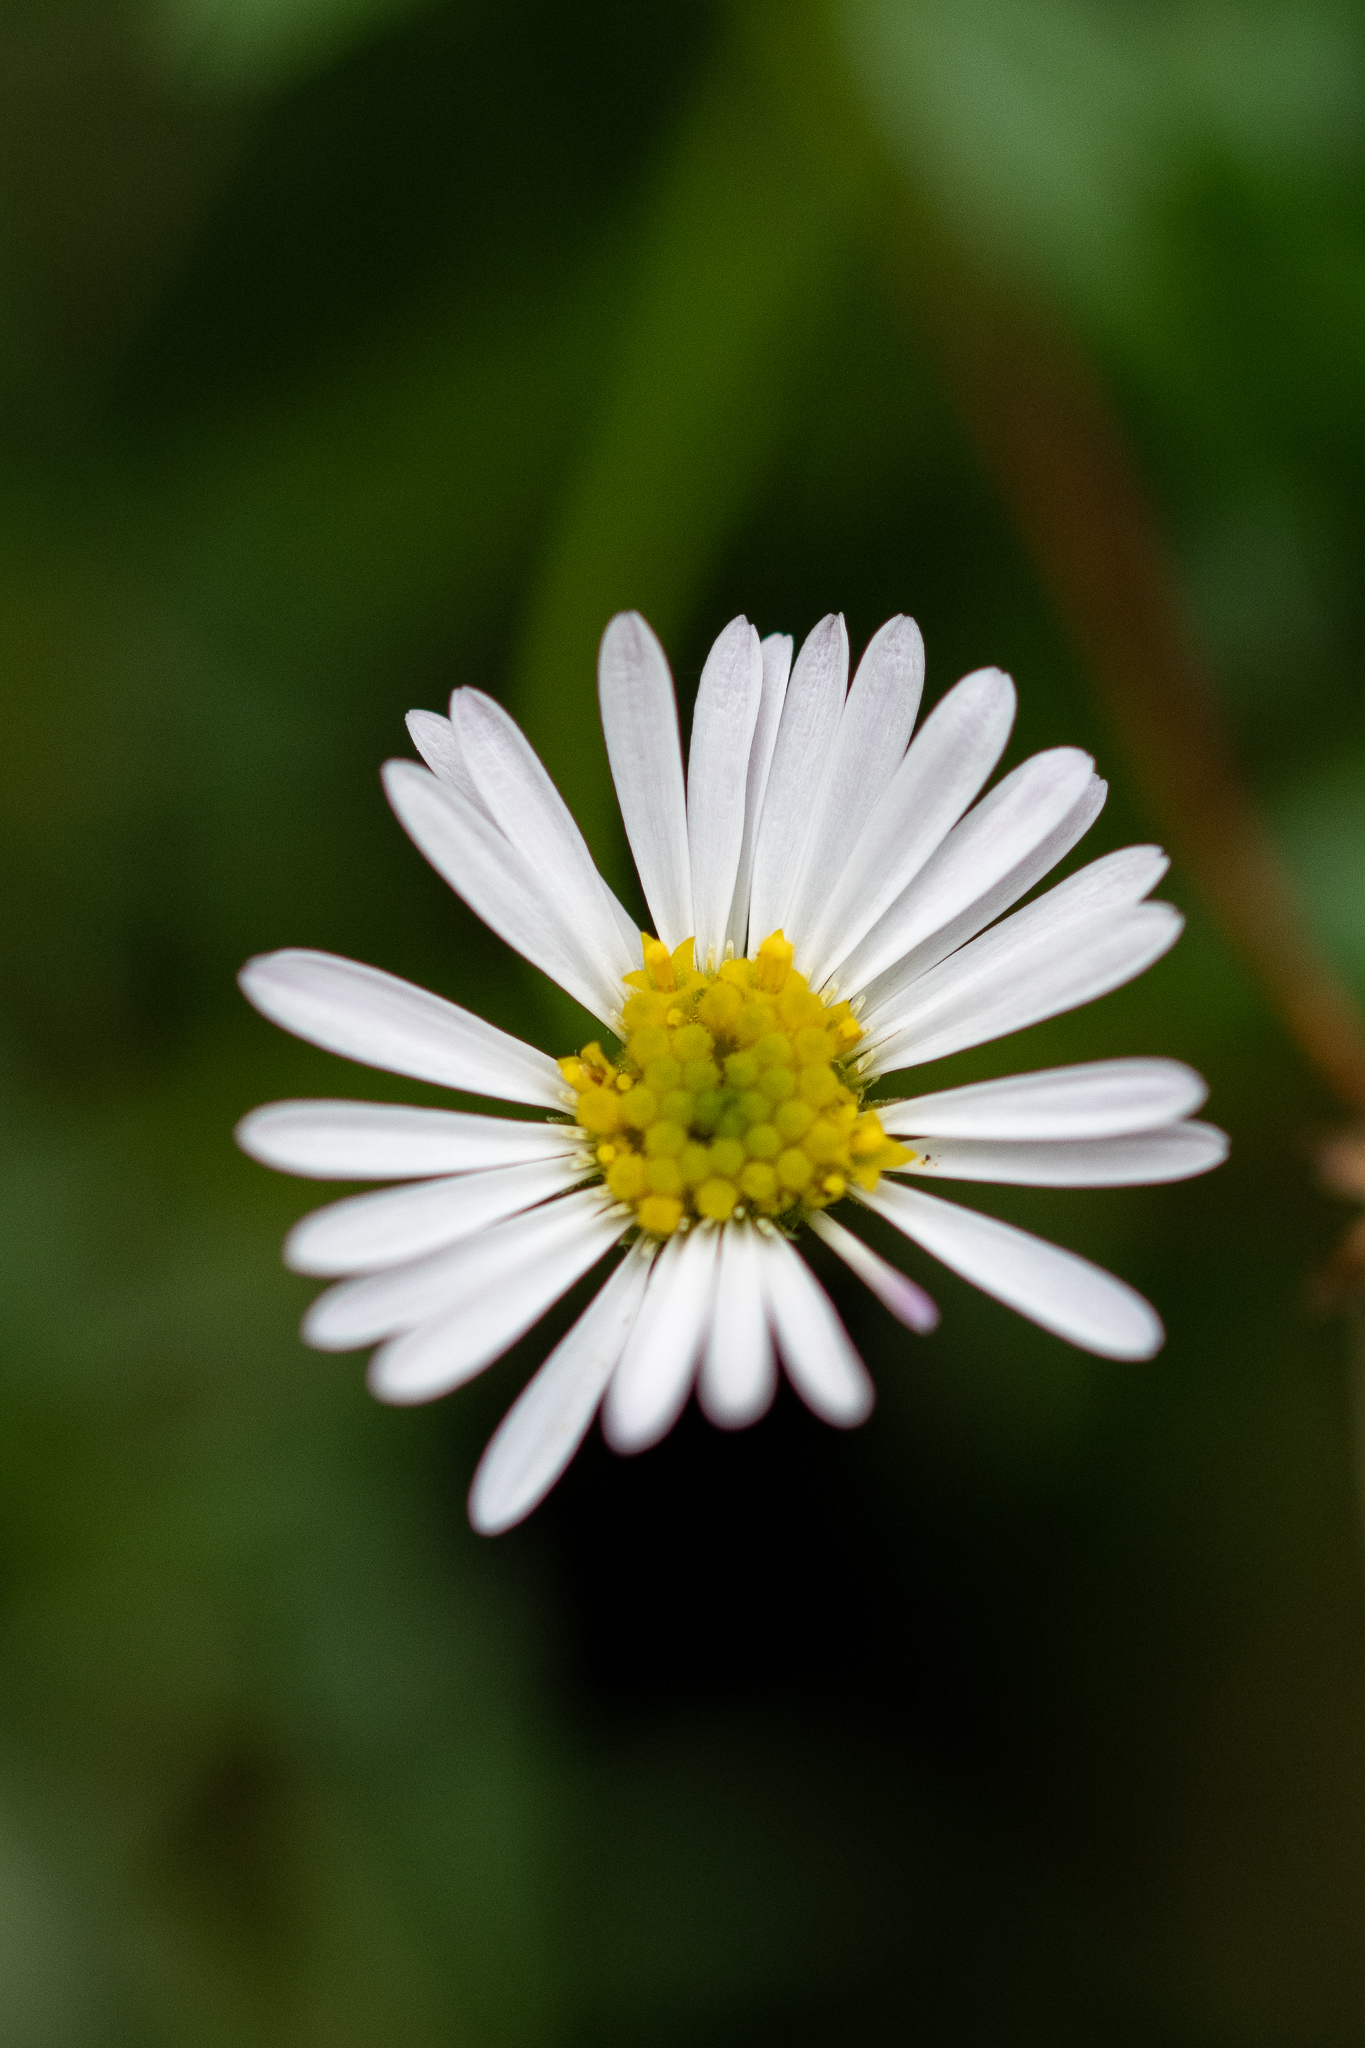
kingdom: Plantae
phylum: Tracheophyta
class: Magnoliopsida
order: Asterales
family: Asteraceae
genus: Erigeron
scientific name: Erigeron karvinskianus
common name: Mexican fleabane
